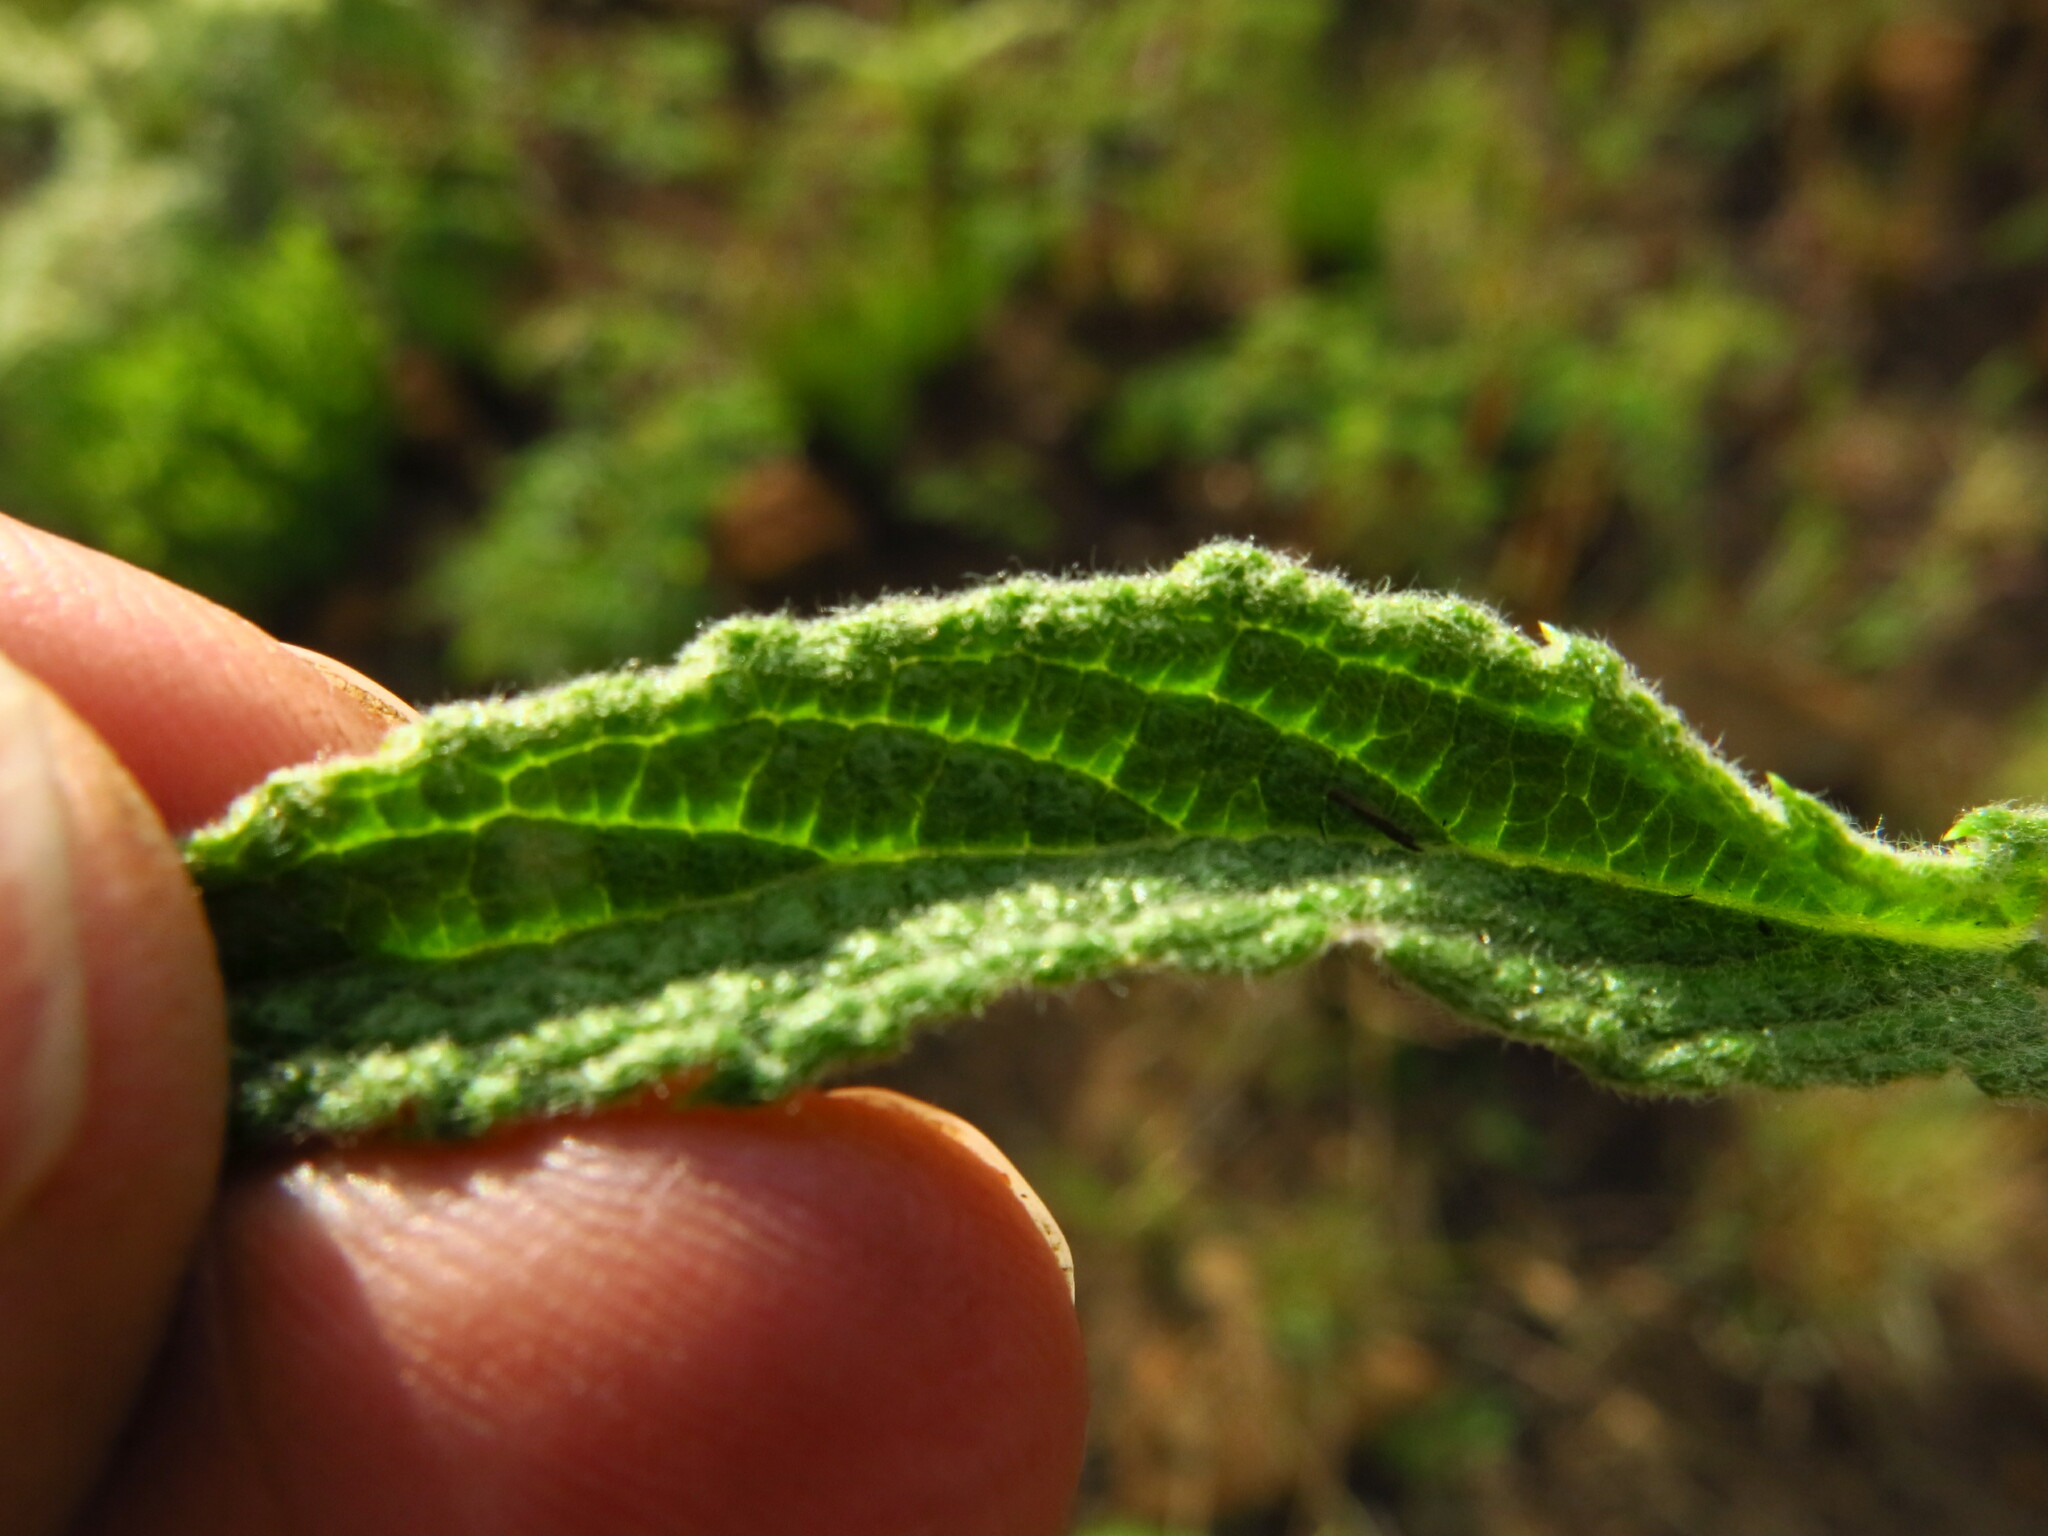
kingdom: Plantae
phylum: Tracheophyta
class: Magnoliopsida
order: Asterales
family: Asteraceae
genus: Hilliardiella
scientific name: Hilliardiella hirsuta
